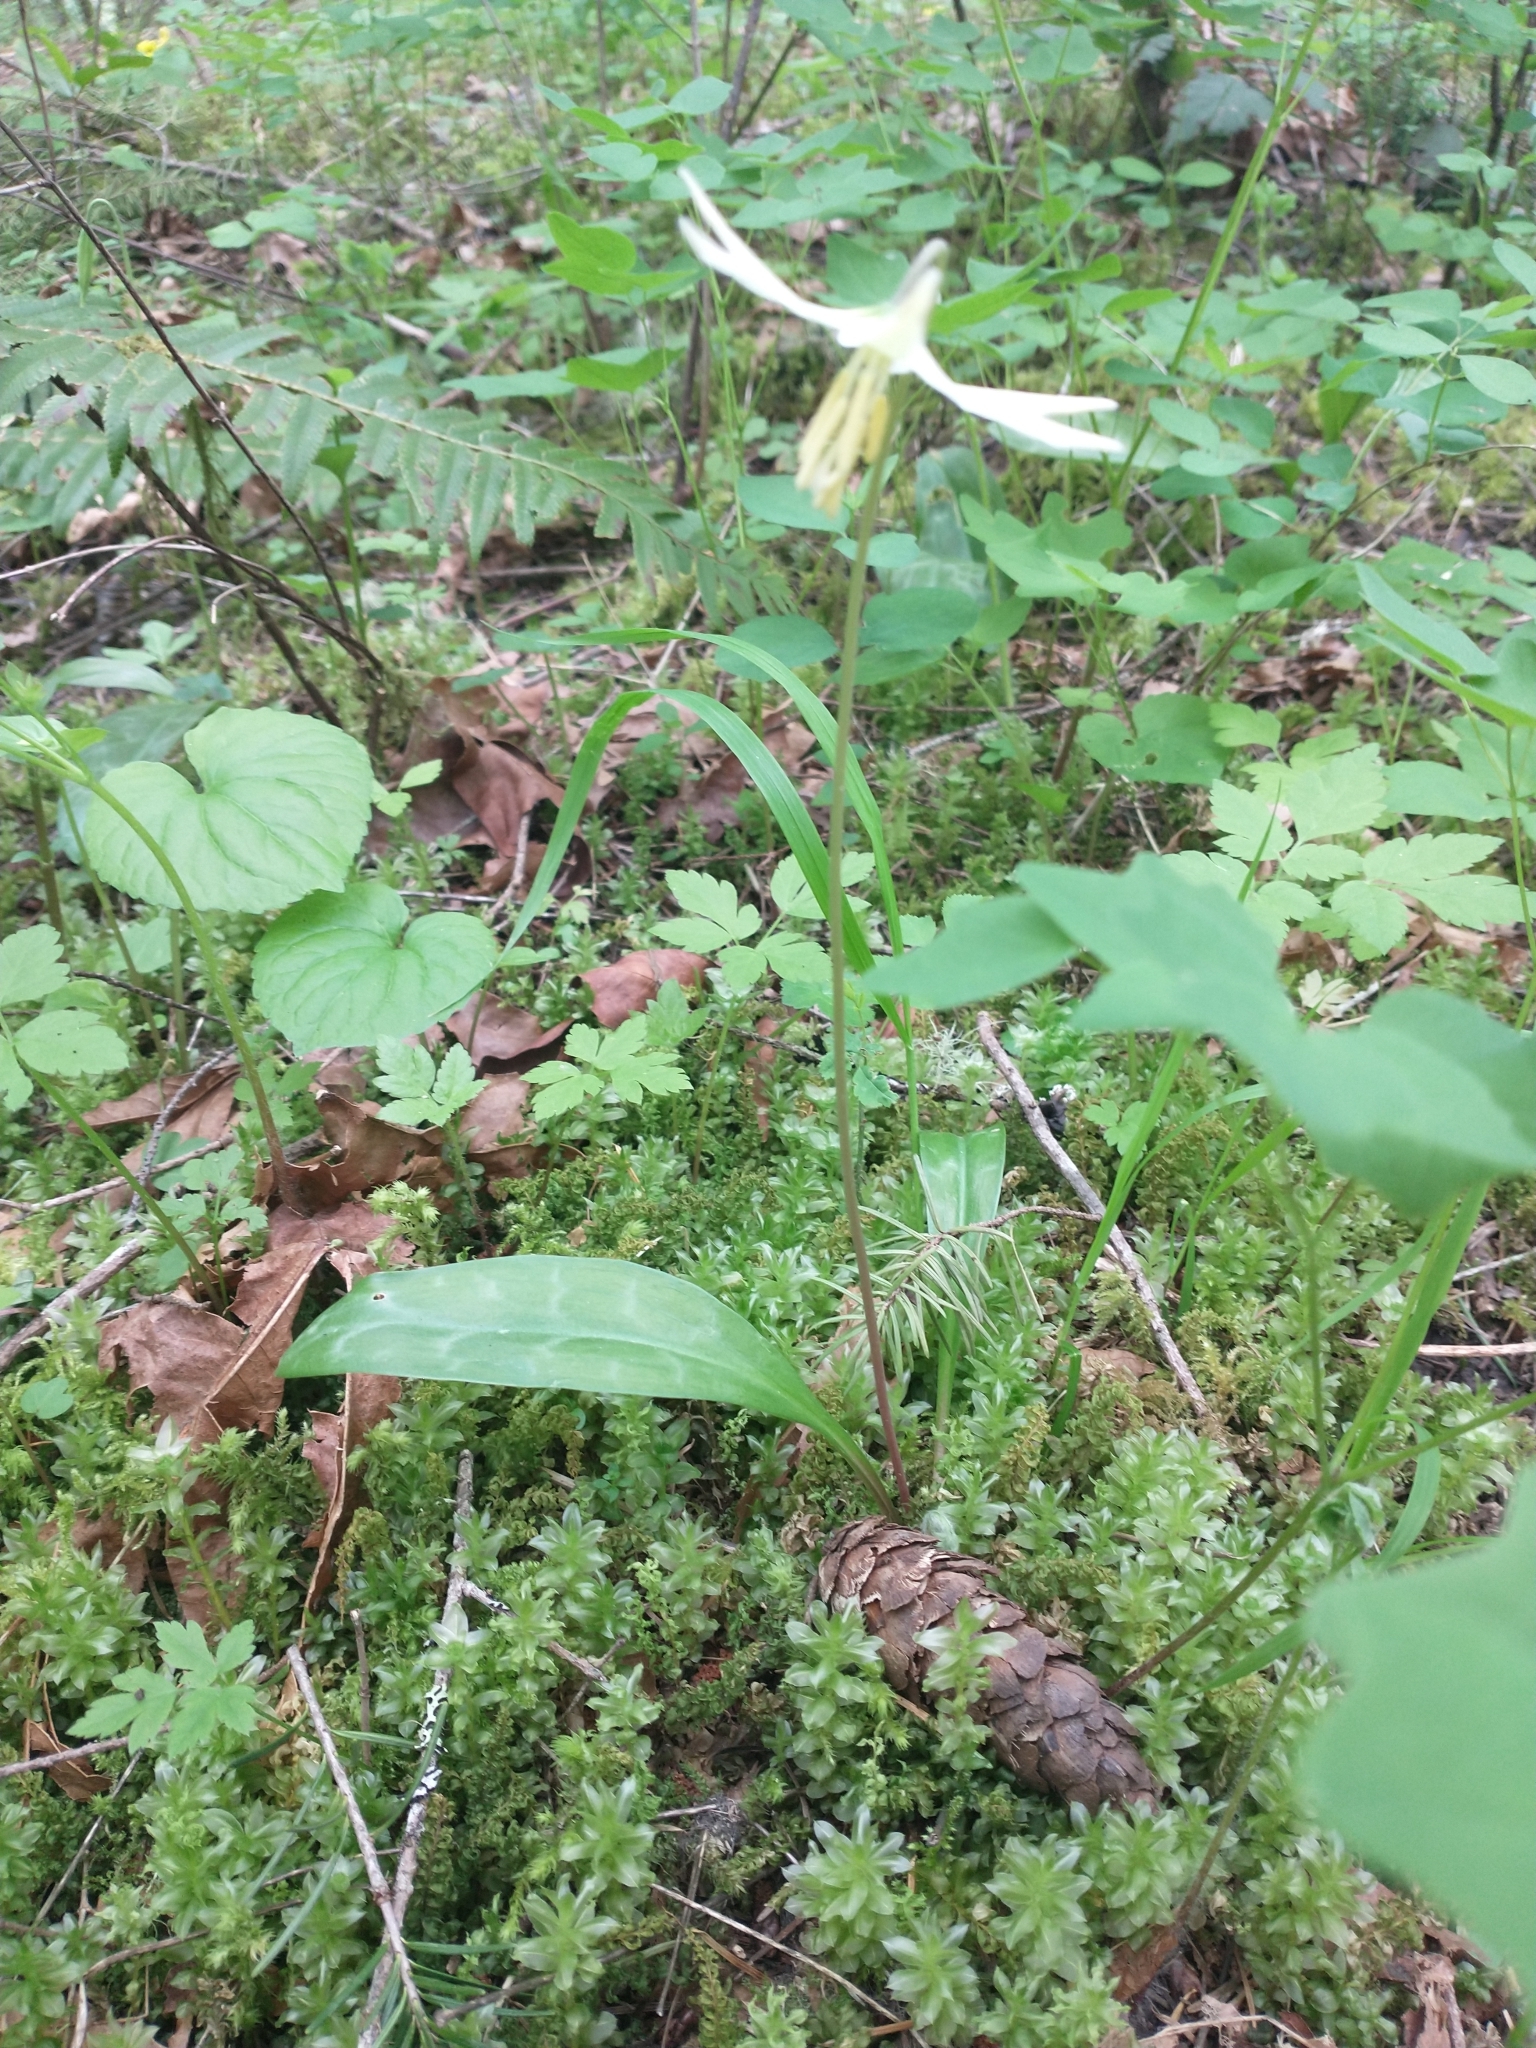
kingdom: Plantae
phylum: Tracheophyta
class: Liliopsida
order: Liliales
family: Liliaceae
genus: Erythronium
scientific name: Erythronium oregonum
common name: Giant adder's-tongue
